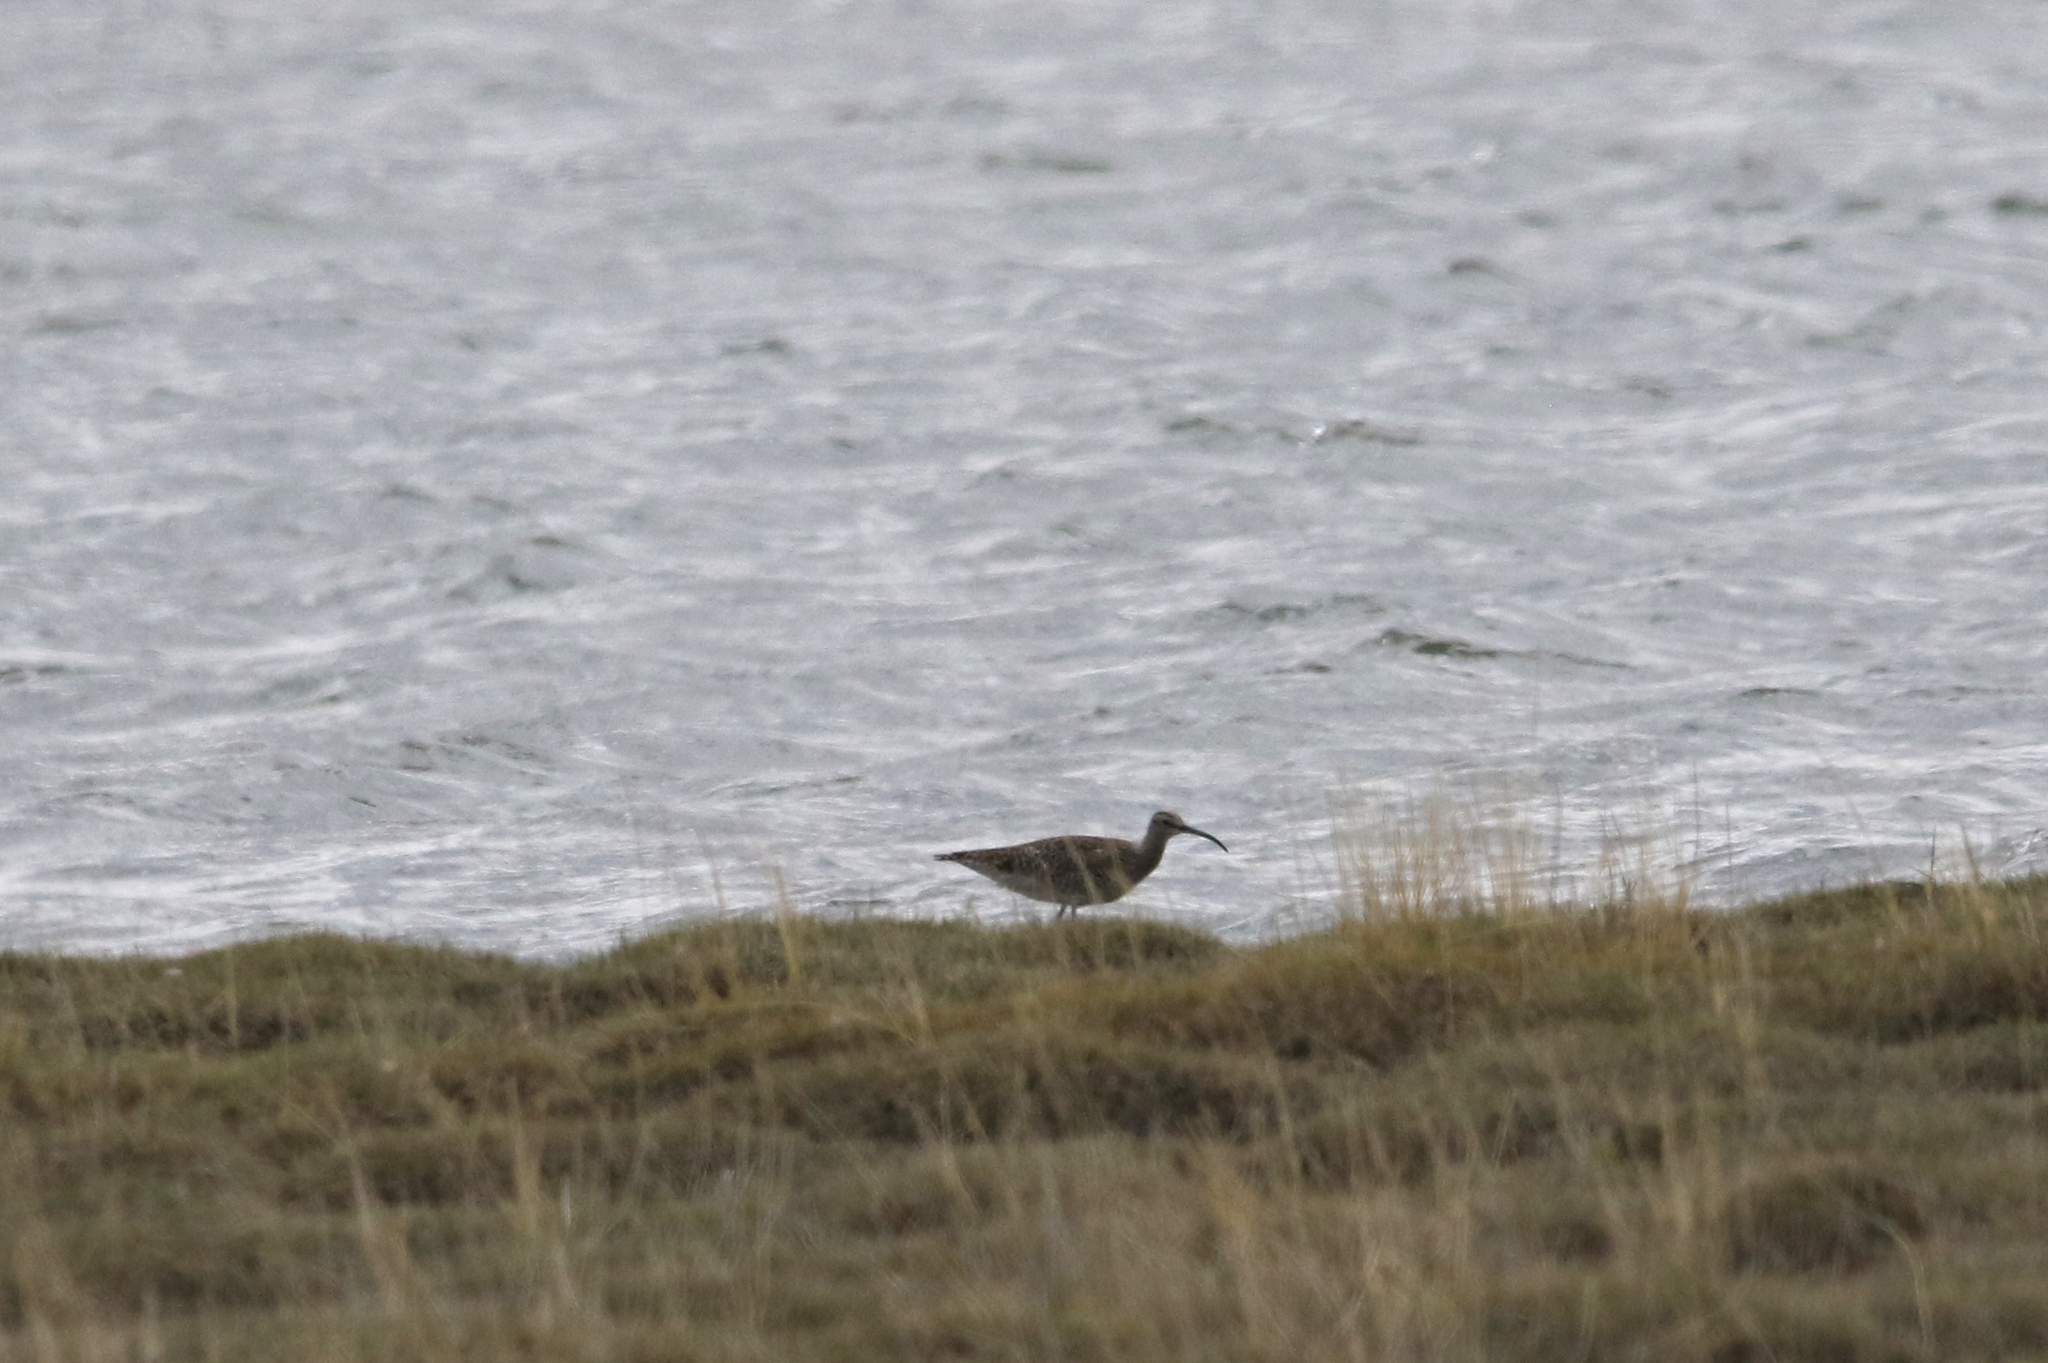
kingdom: Animalia
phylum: Chordata
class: Aves
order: Charadriiformes
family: Scolopacidae
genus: Numenius
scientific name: Numenius phaeopus
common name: Whimbrel
